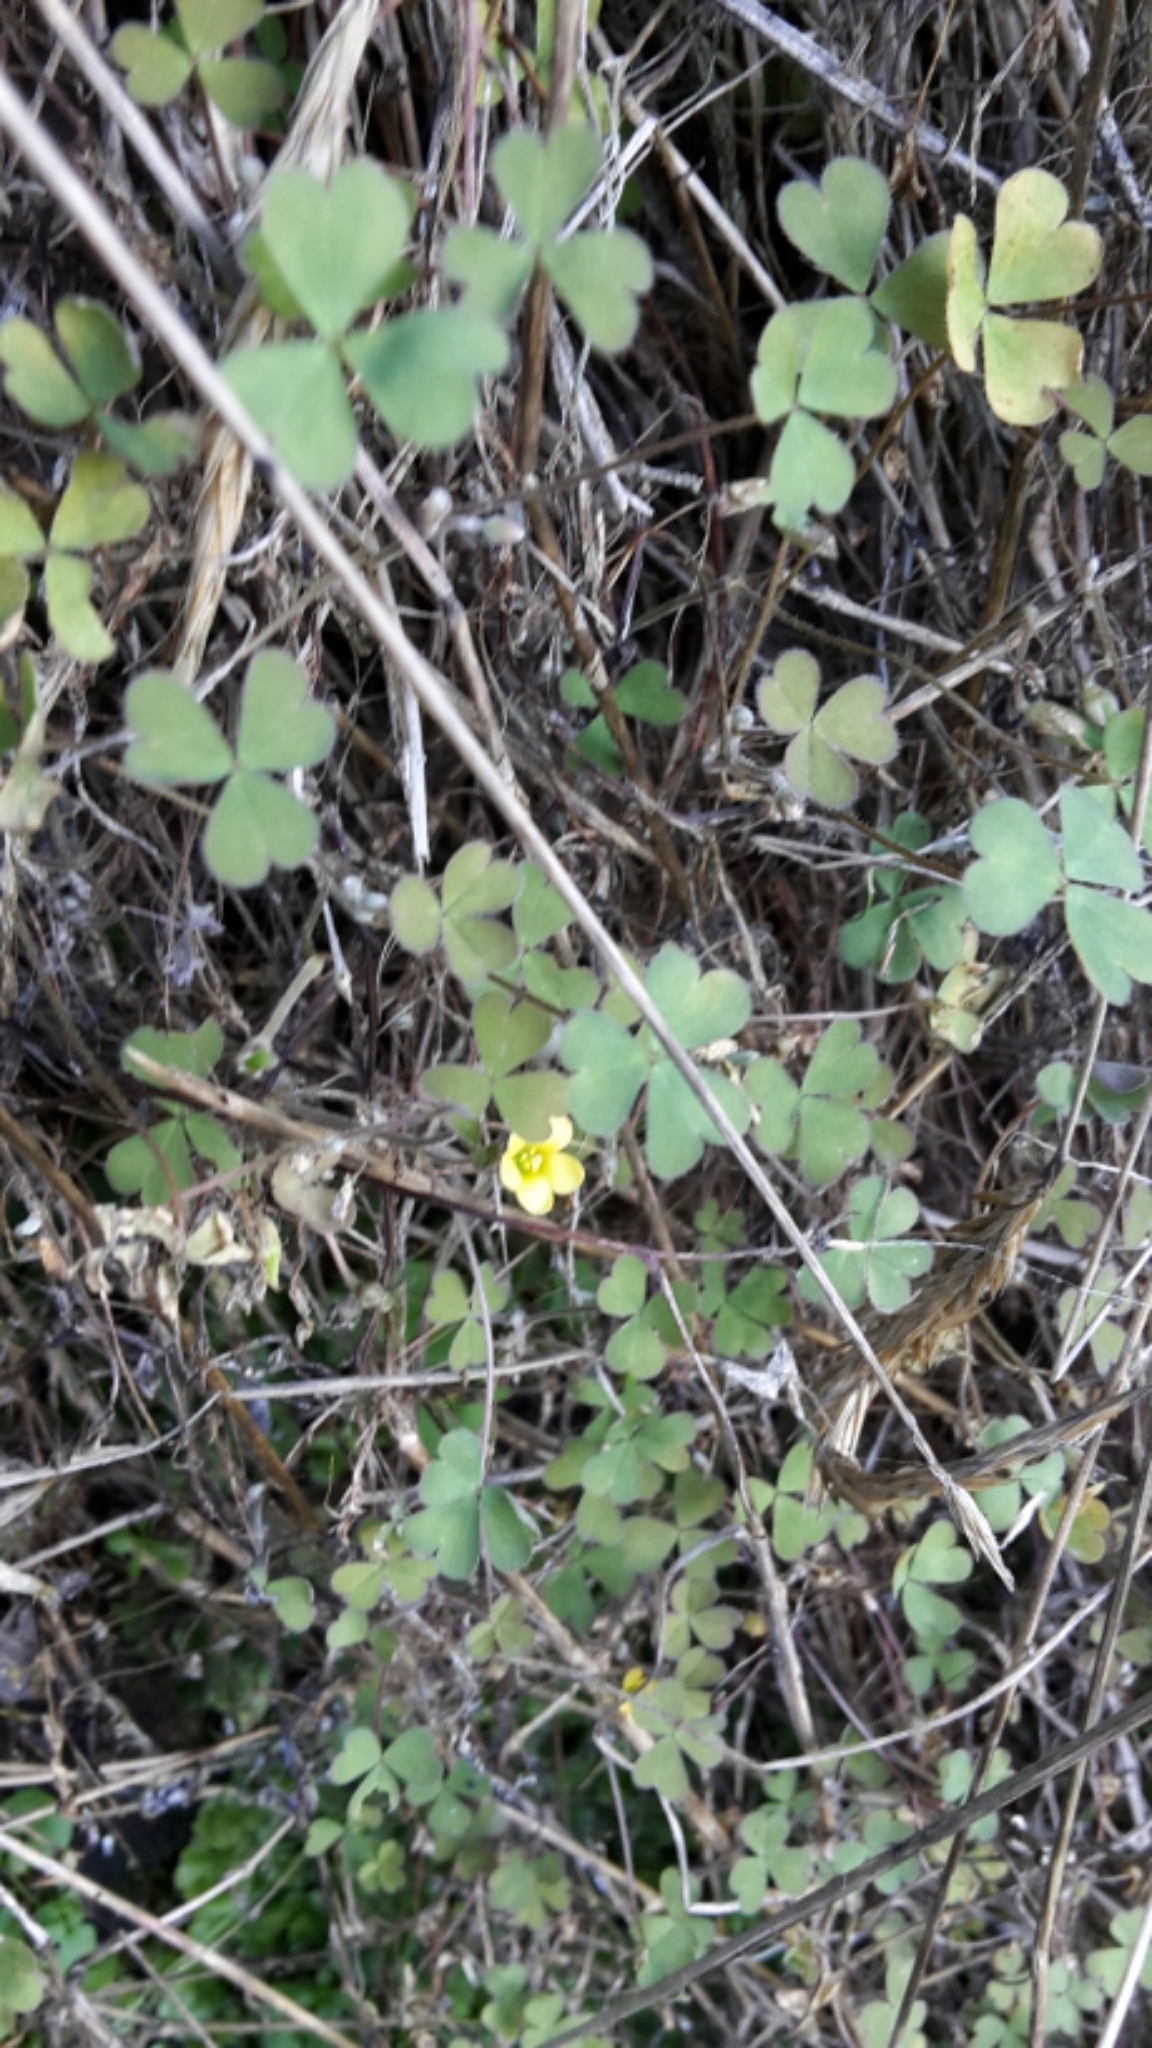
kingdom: Plantae
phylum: Tracheophyta
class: Magnoliopsida
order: Oxalidales
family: Oxalidaceae
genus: Oxalis
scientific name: Oxalis corniculata
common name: Procumbent yellow-sorrel
